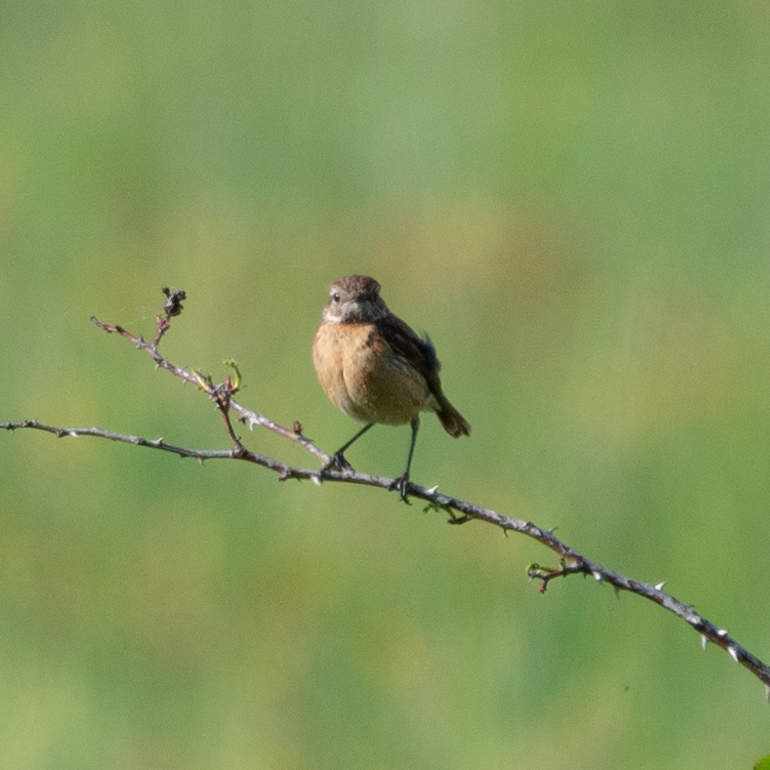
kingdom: Animalia
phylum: Chordata
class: Aves
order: Passeriformes
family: Muscicapidae
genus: Saxicola
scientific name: Saxicola rubicola
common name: European stonechat
